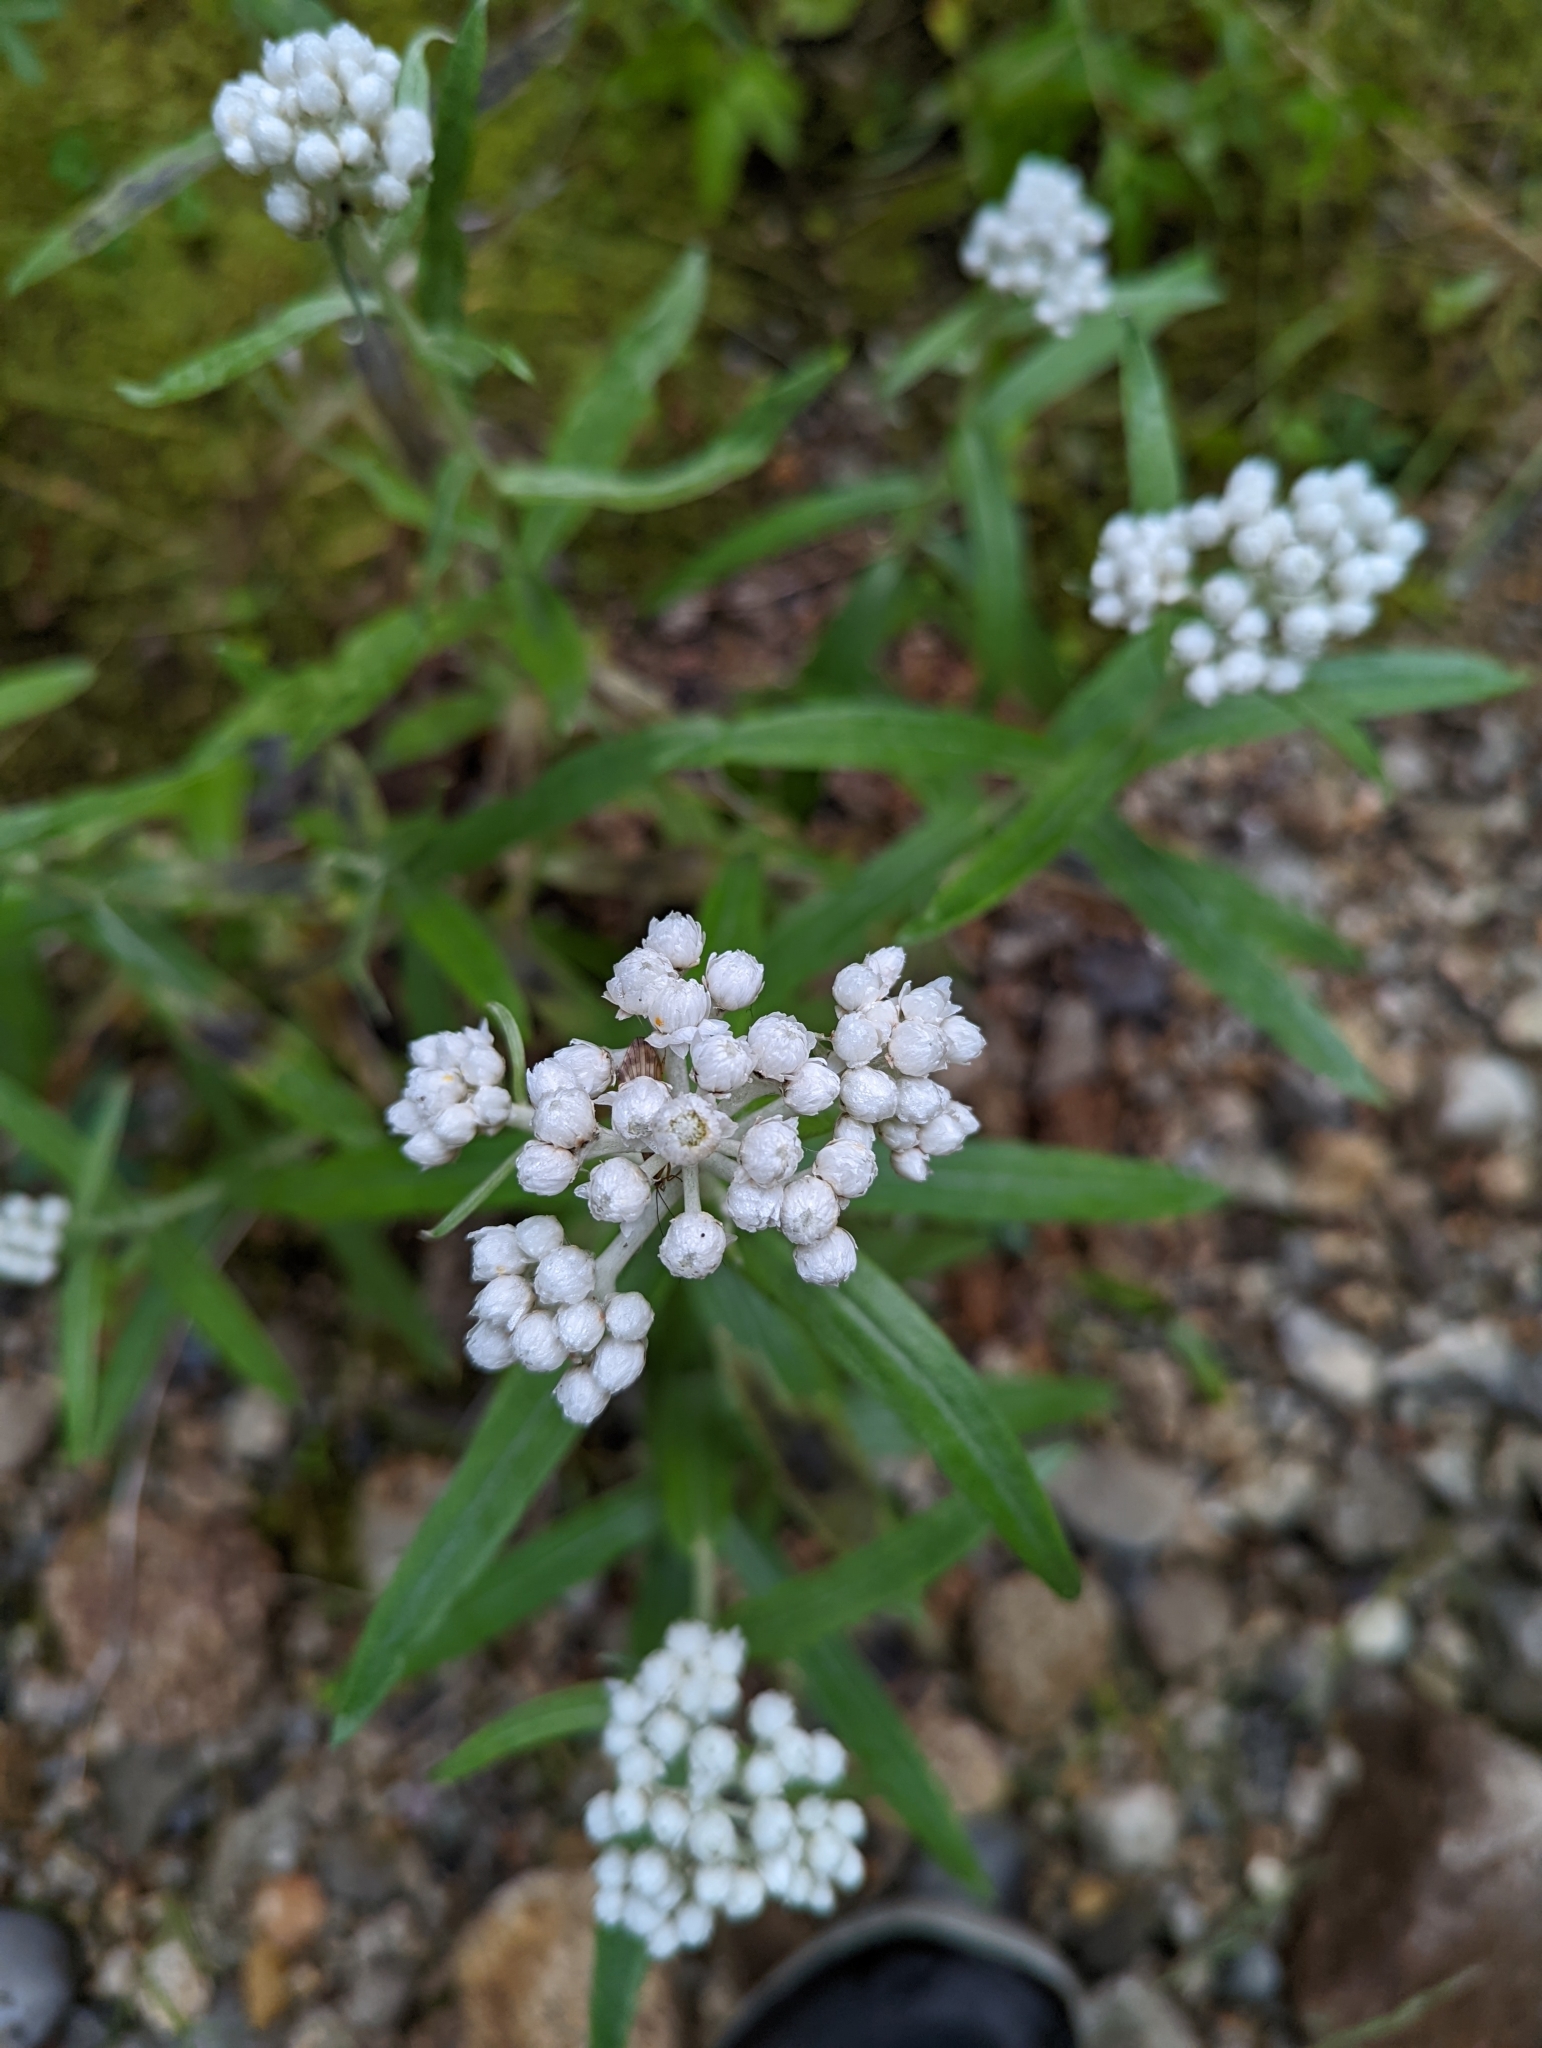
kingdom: Plantae
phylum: Tracheophyta
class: Magnoliopsida
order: Asterales
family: Asteraceae
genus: Anaphalis
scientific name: Anaphalis margaritacea
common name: Pearly everlasting
